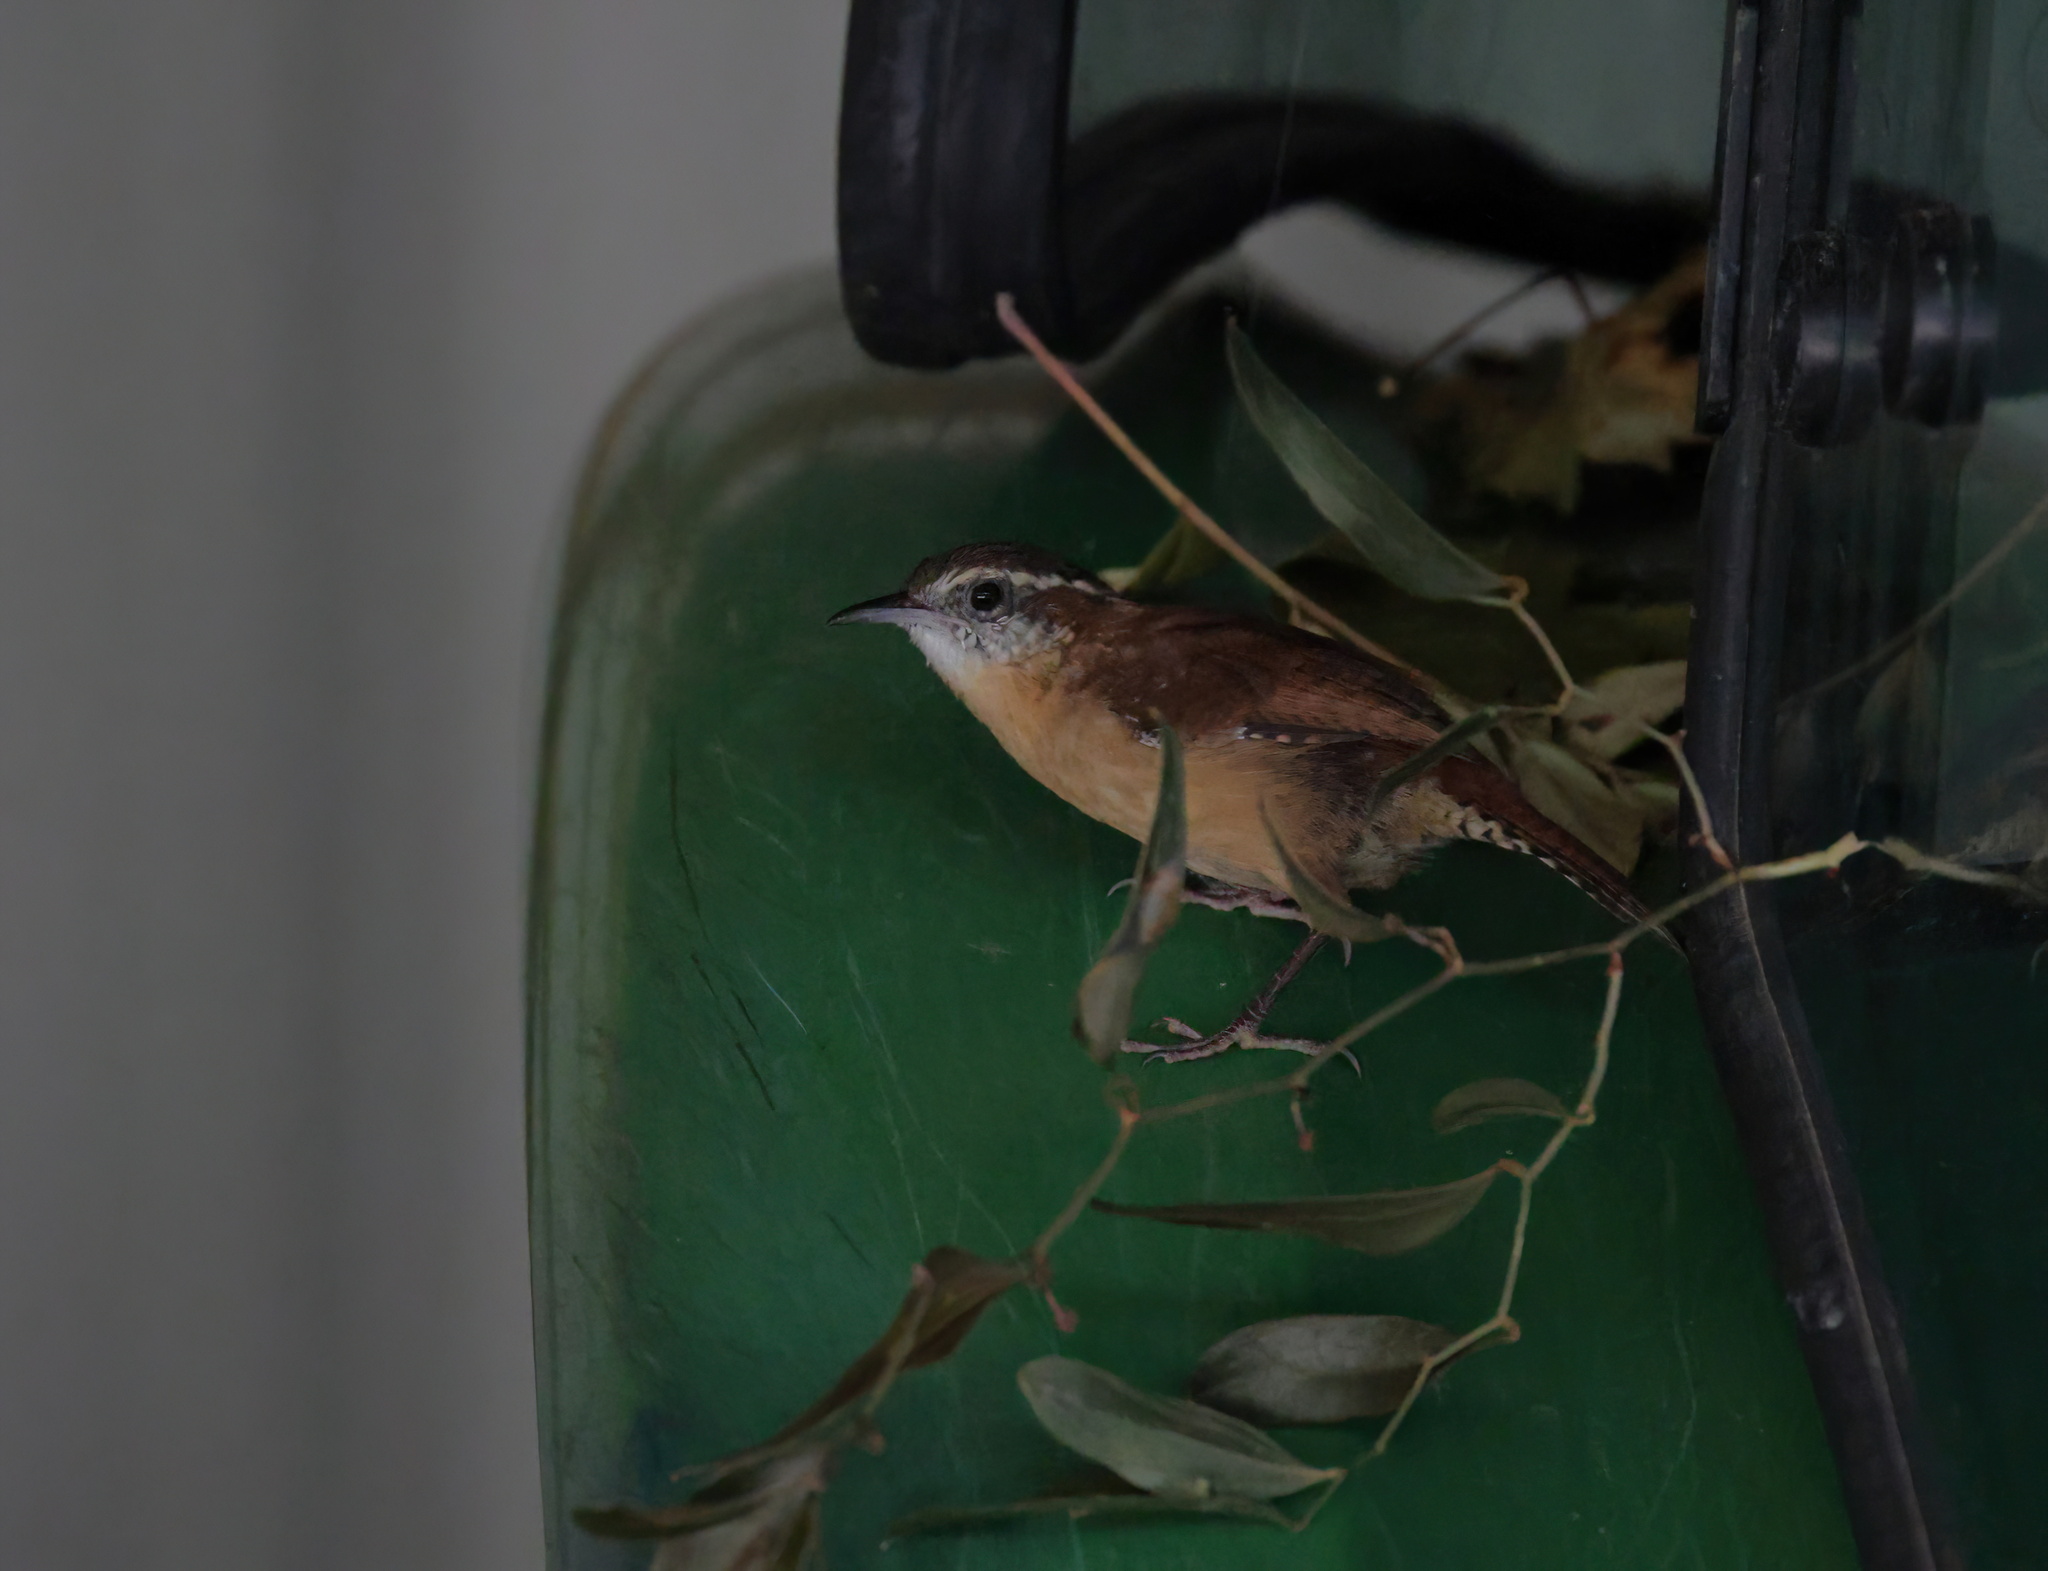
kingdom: Animalia
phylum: Chordata
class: Aves
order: Passeriformes
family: Troglodytidae
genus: Thryothorus
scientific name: Thryothorus ludovicianus
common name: Carolina wren
